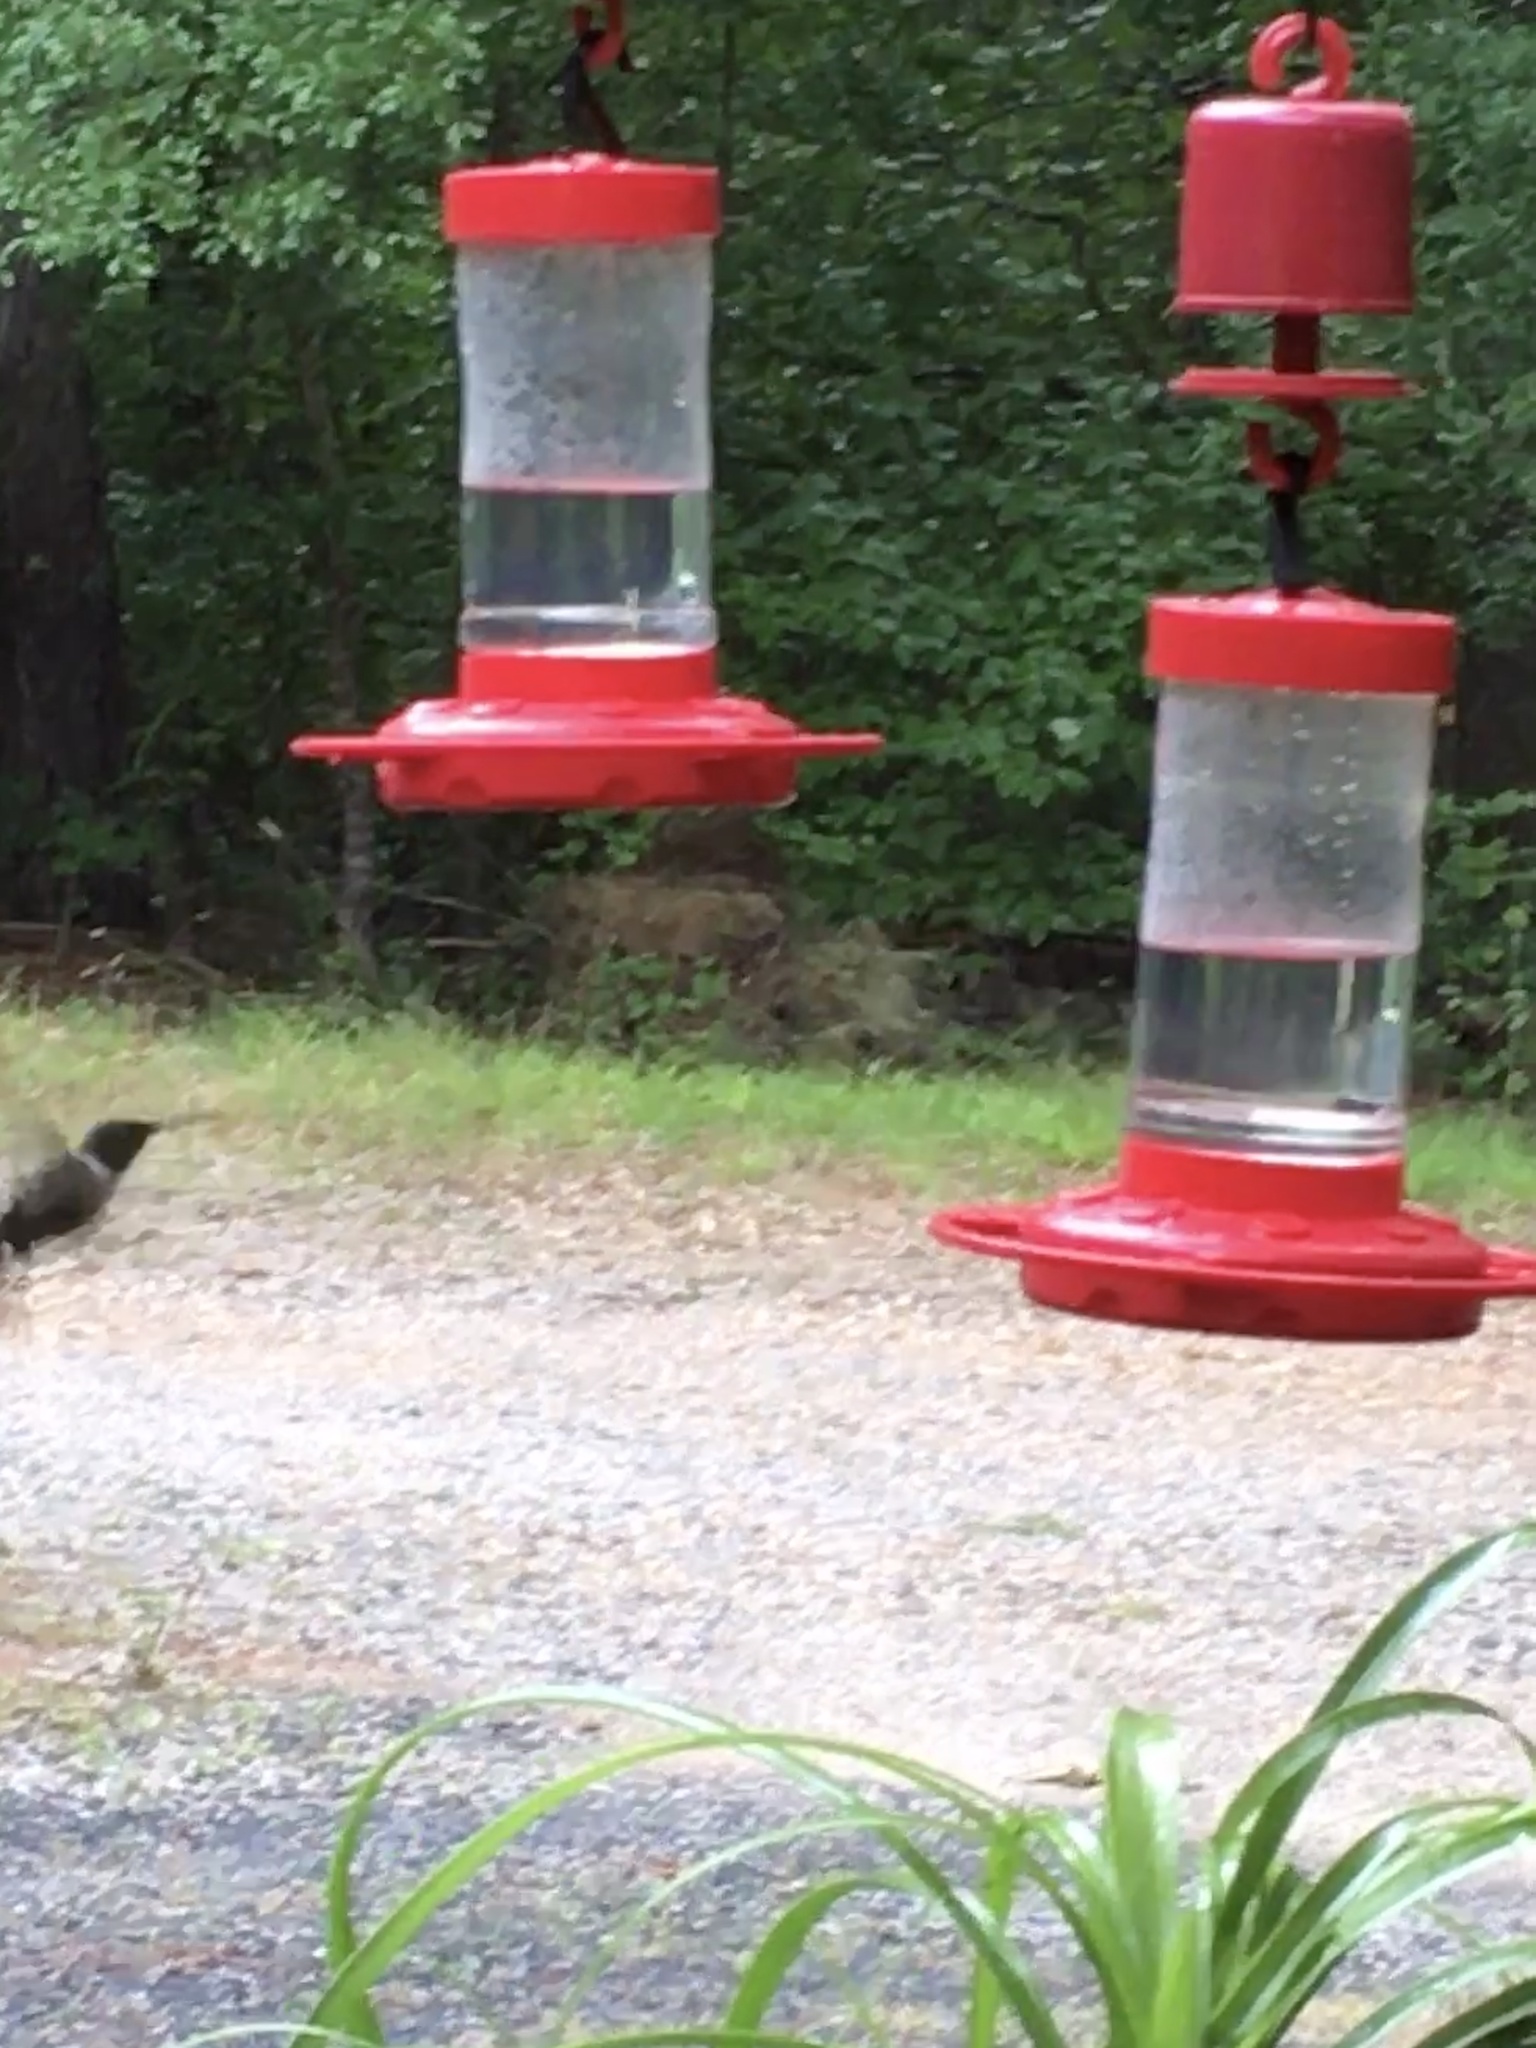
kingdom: Animalia
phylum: Chordata
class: Aves
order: Apodiformes
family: Trochilidae
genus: Archilochus
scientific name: Archilochus colubris
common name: Ruby-throated hummingbird
